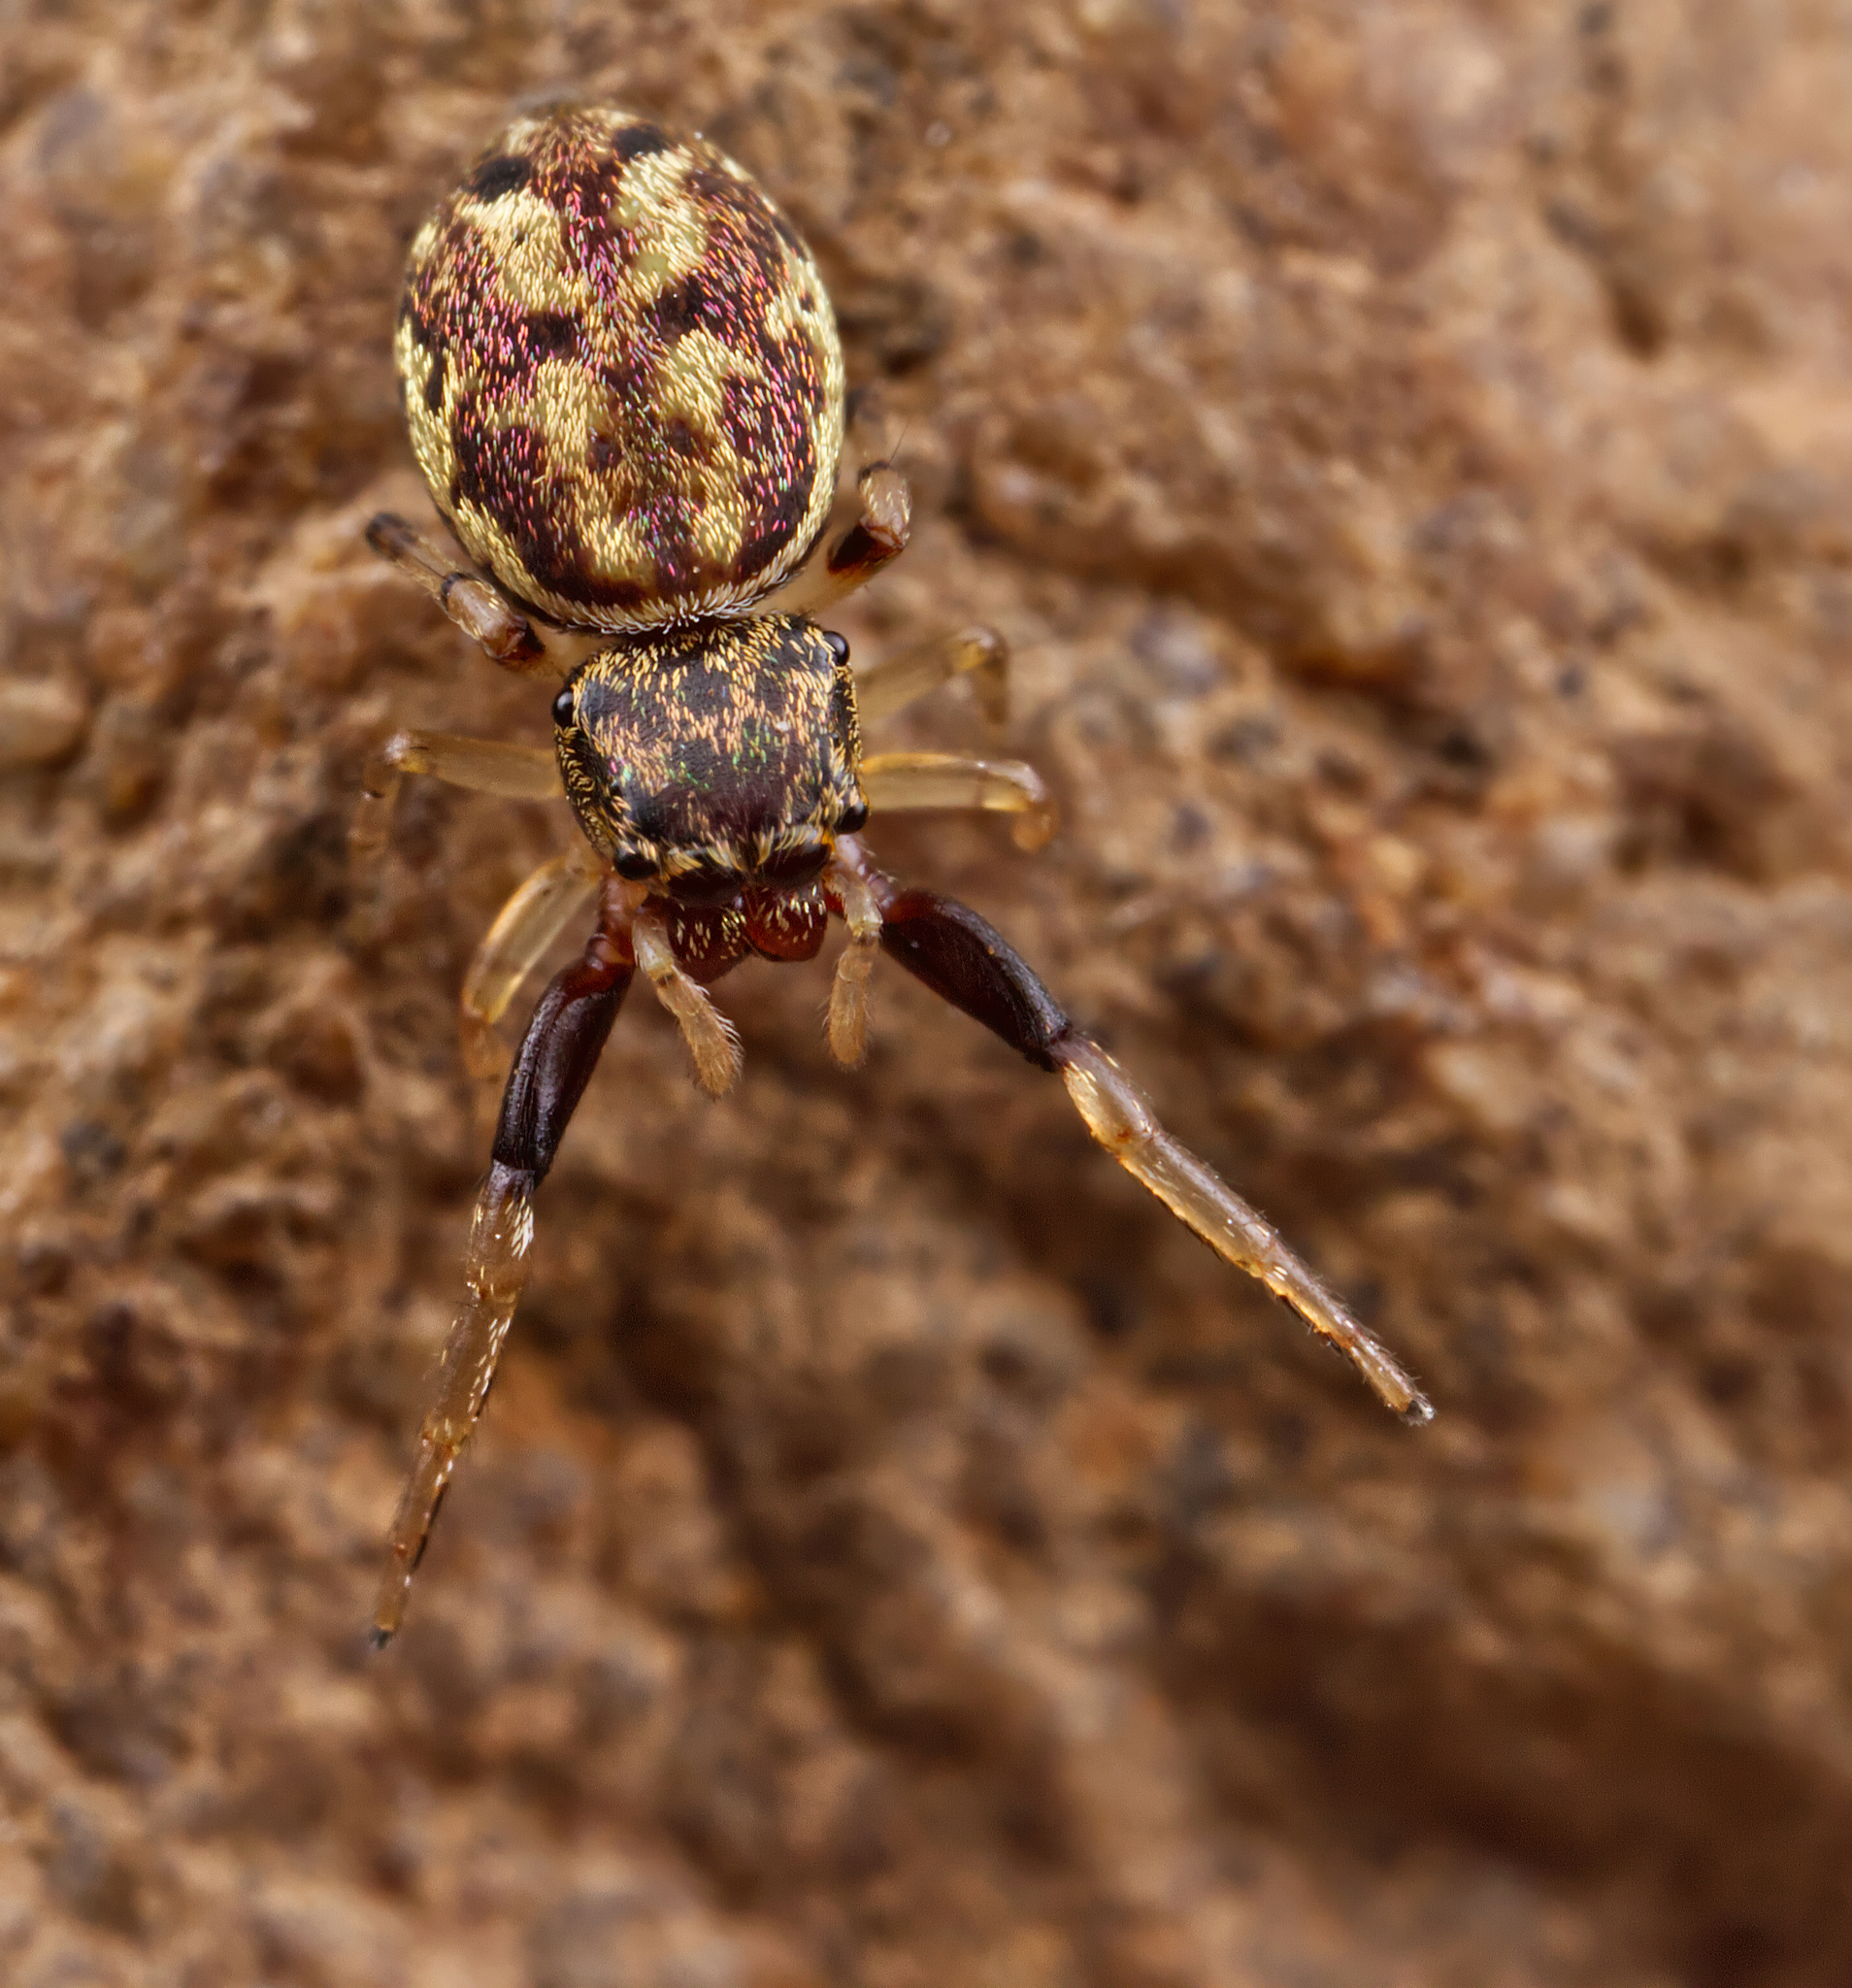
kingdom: Animalia
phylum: Arthropoda
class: Arachnida
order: Araneae
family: Salticidae
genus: Zygoballus
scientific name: Zygoballus rufipes
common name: Jumping spiders
